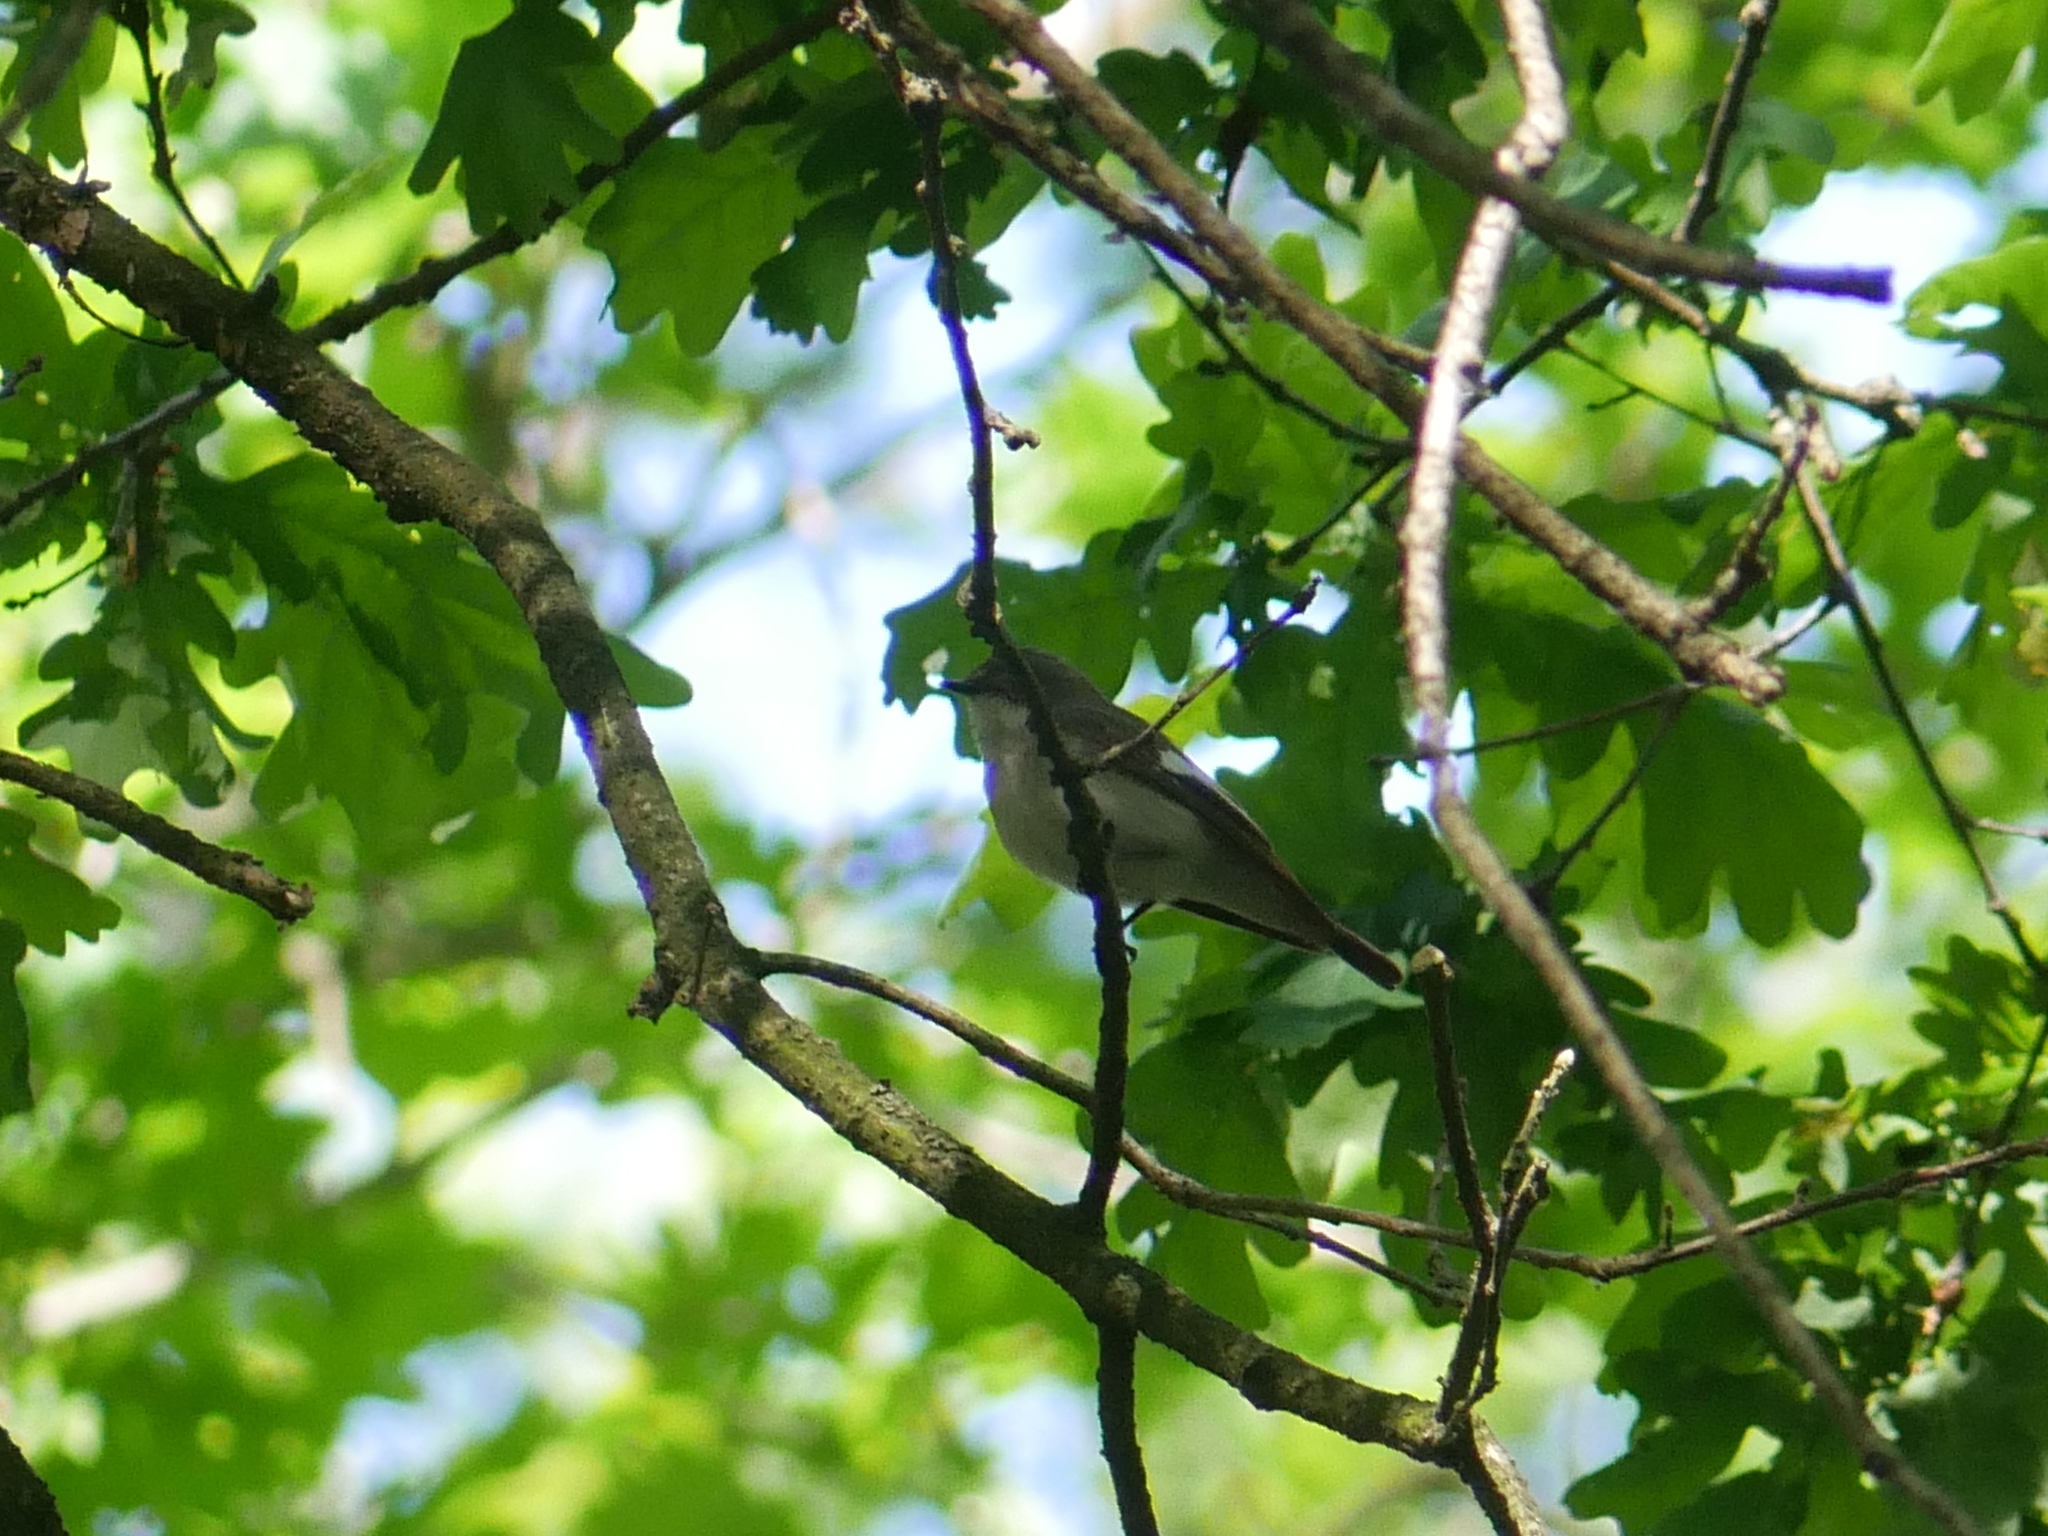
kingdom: Animalia
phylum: Chordata
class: Aves
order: Passeriformes
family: Muscicapidae
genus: Ficedula
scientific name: Ficedula hypoleuca
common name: European pied flycatcher
